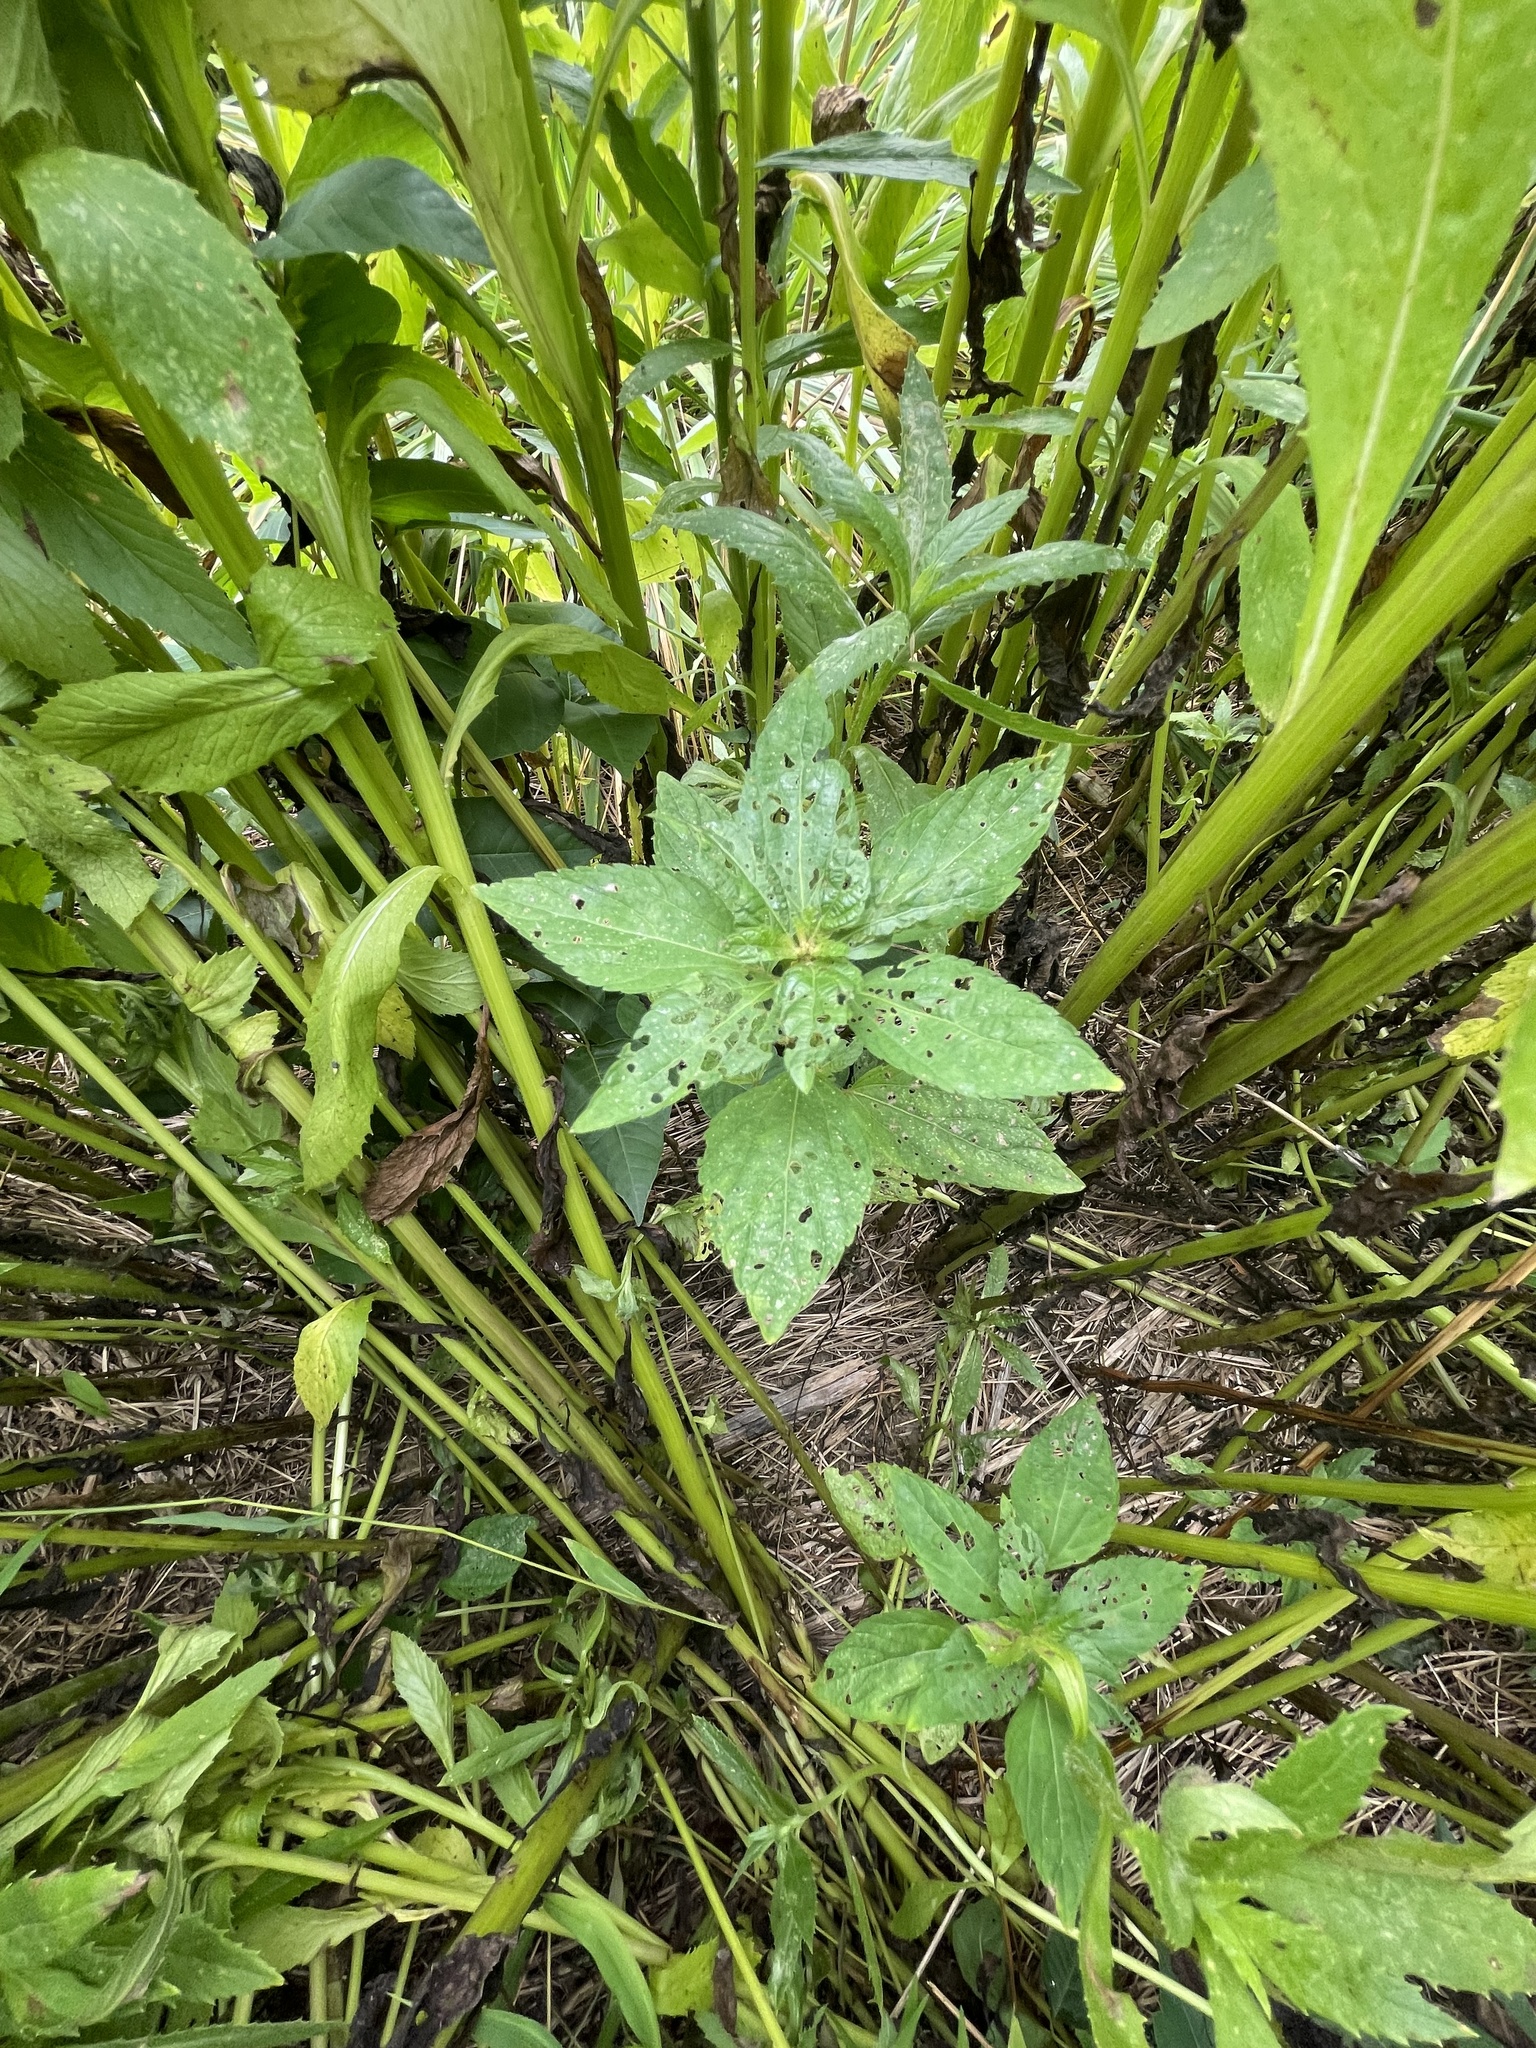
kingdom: Plantae
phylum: Tracheophyta
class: Magnoliopsida
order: Malpighiales
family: Euphorbiaceae
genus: Acalypha
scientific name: Acalypha rhomboidea
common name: Rhombic copperleaf
